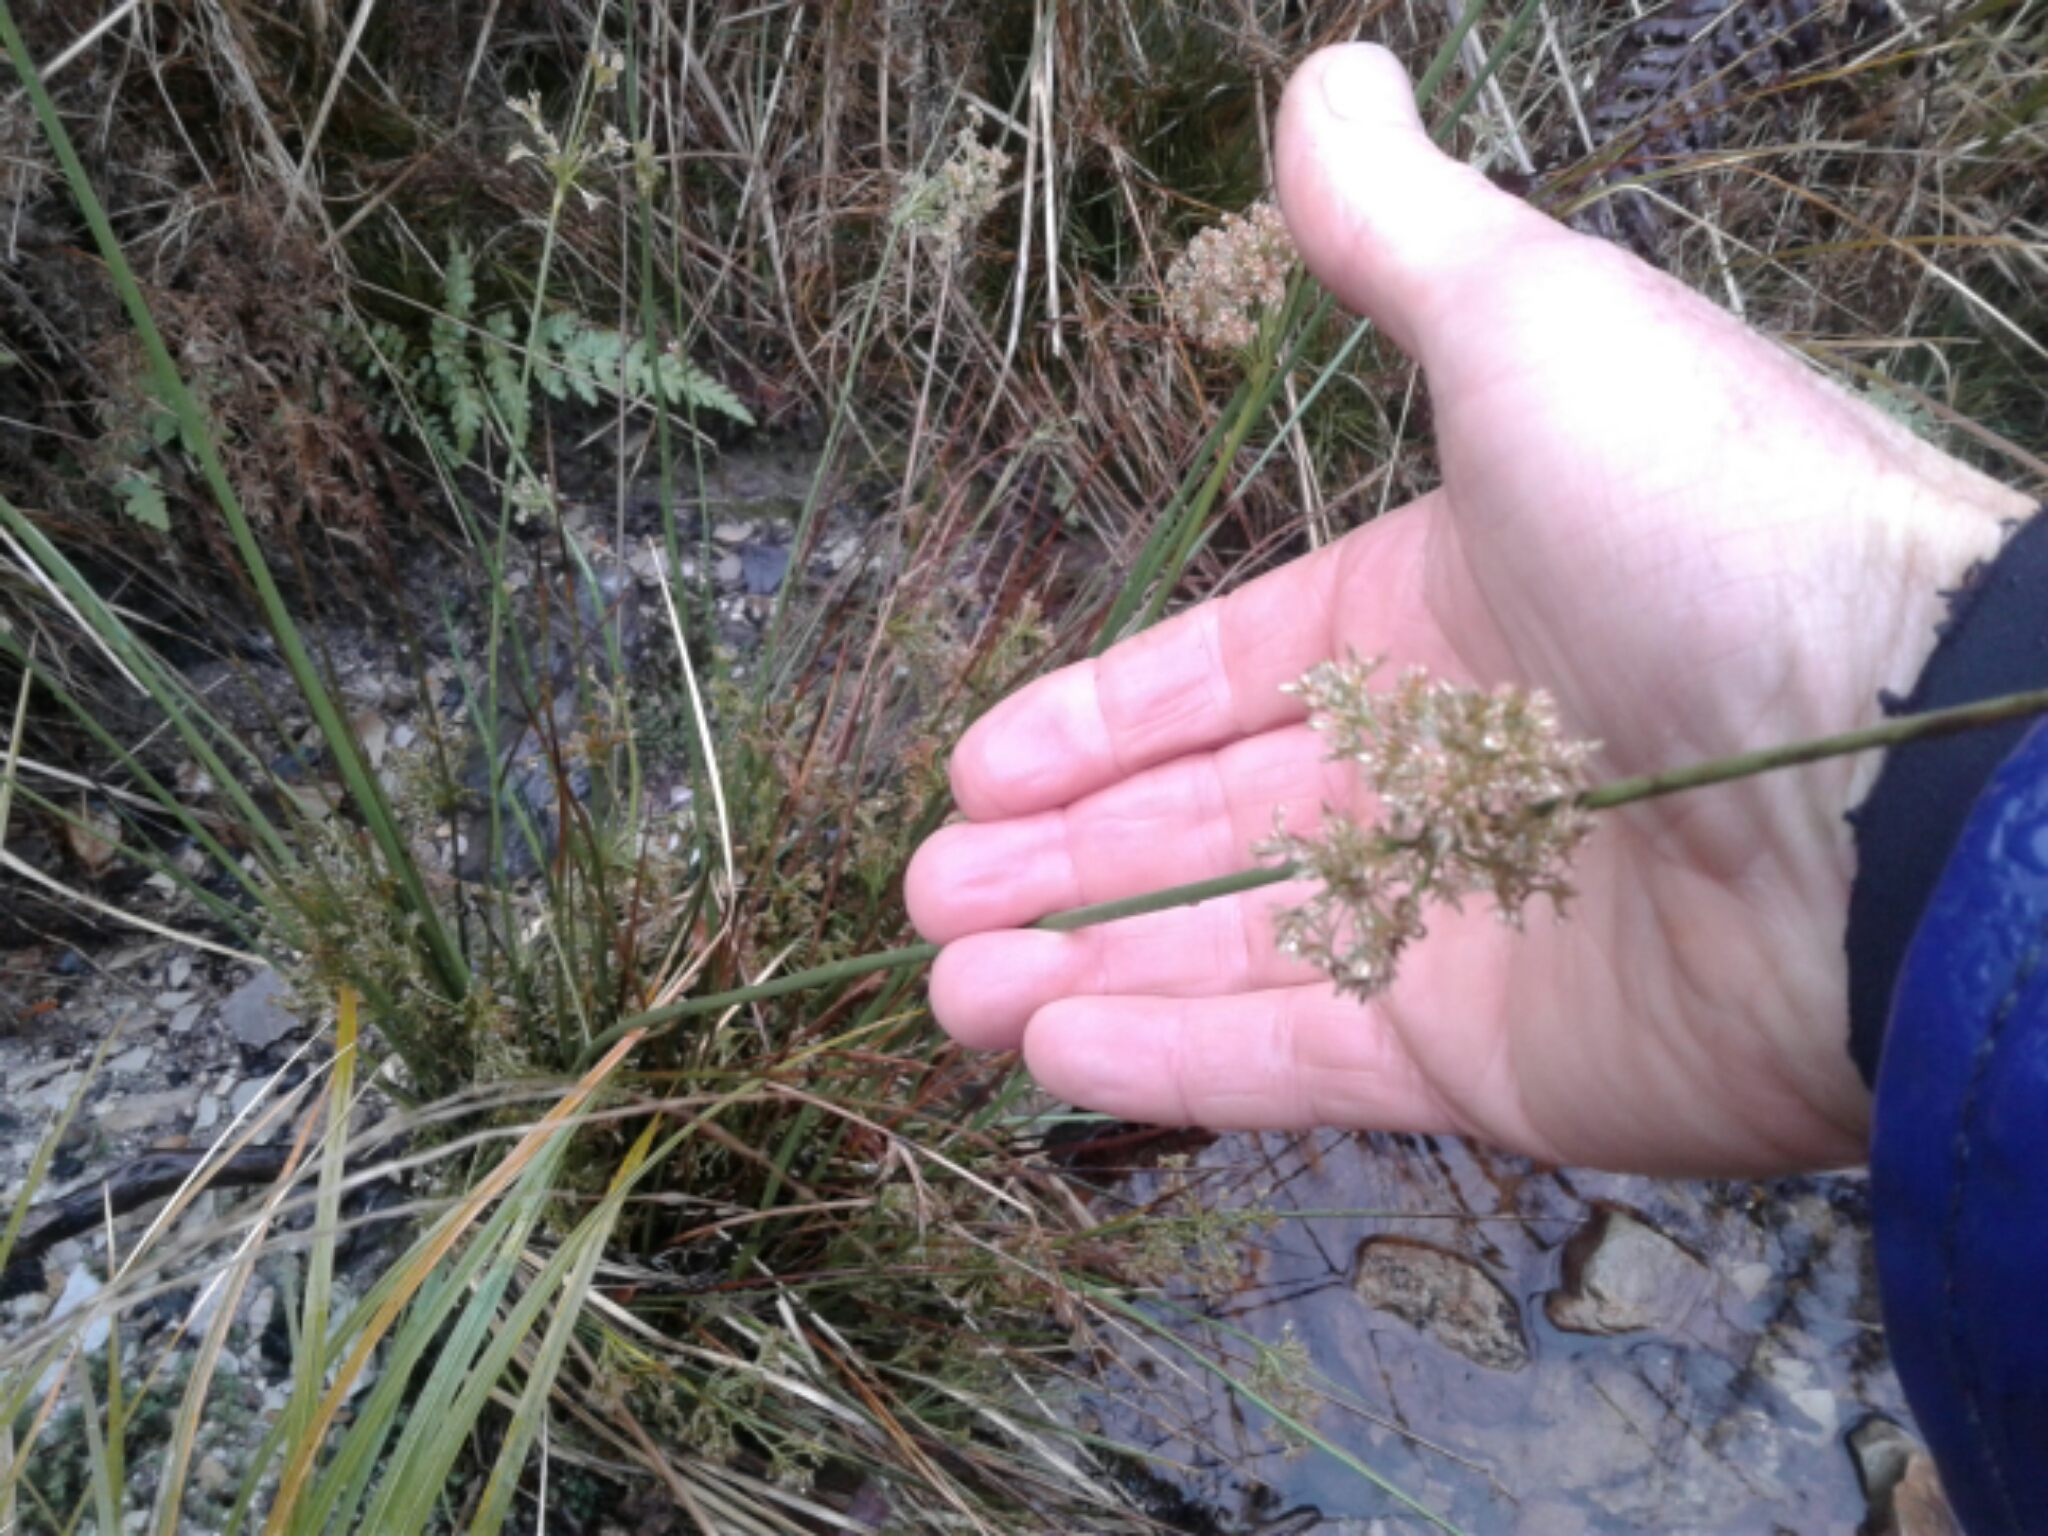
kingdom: Plantae
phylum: Tracheophyta
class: Liliopsida
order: Poales
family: Juncaceae
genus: Juncus
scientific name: Juncus
